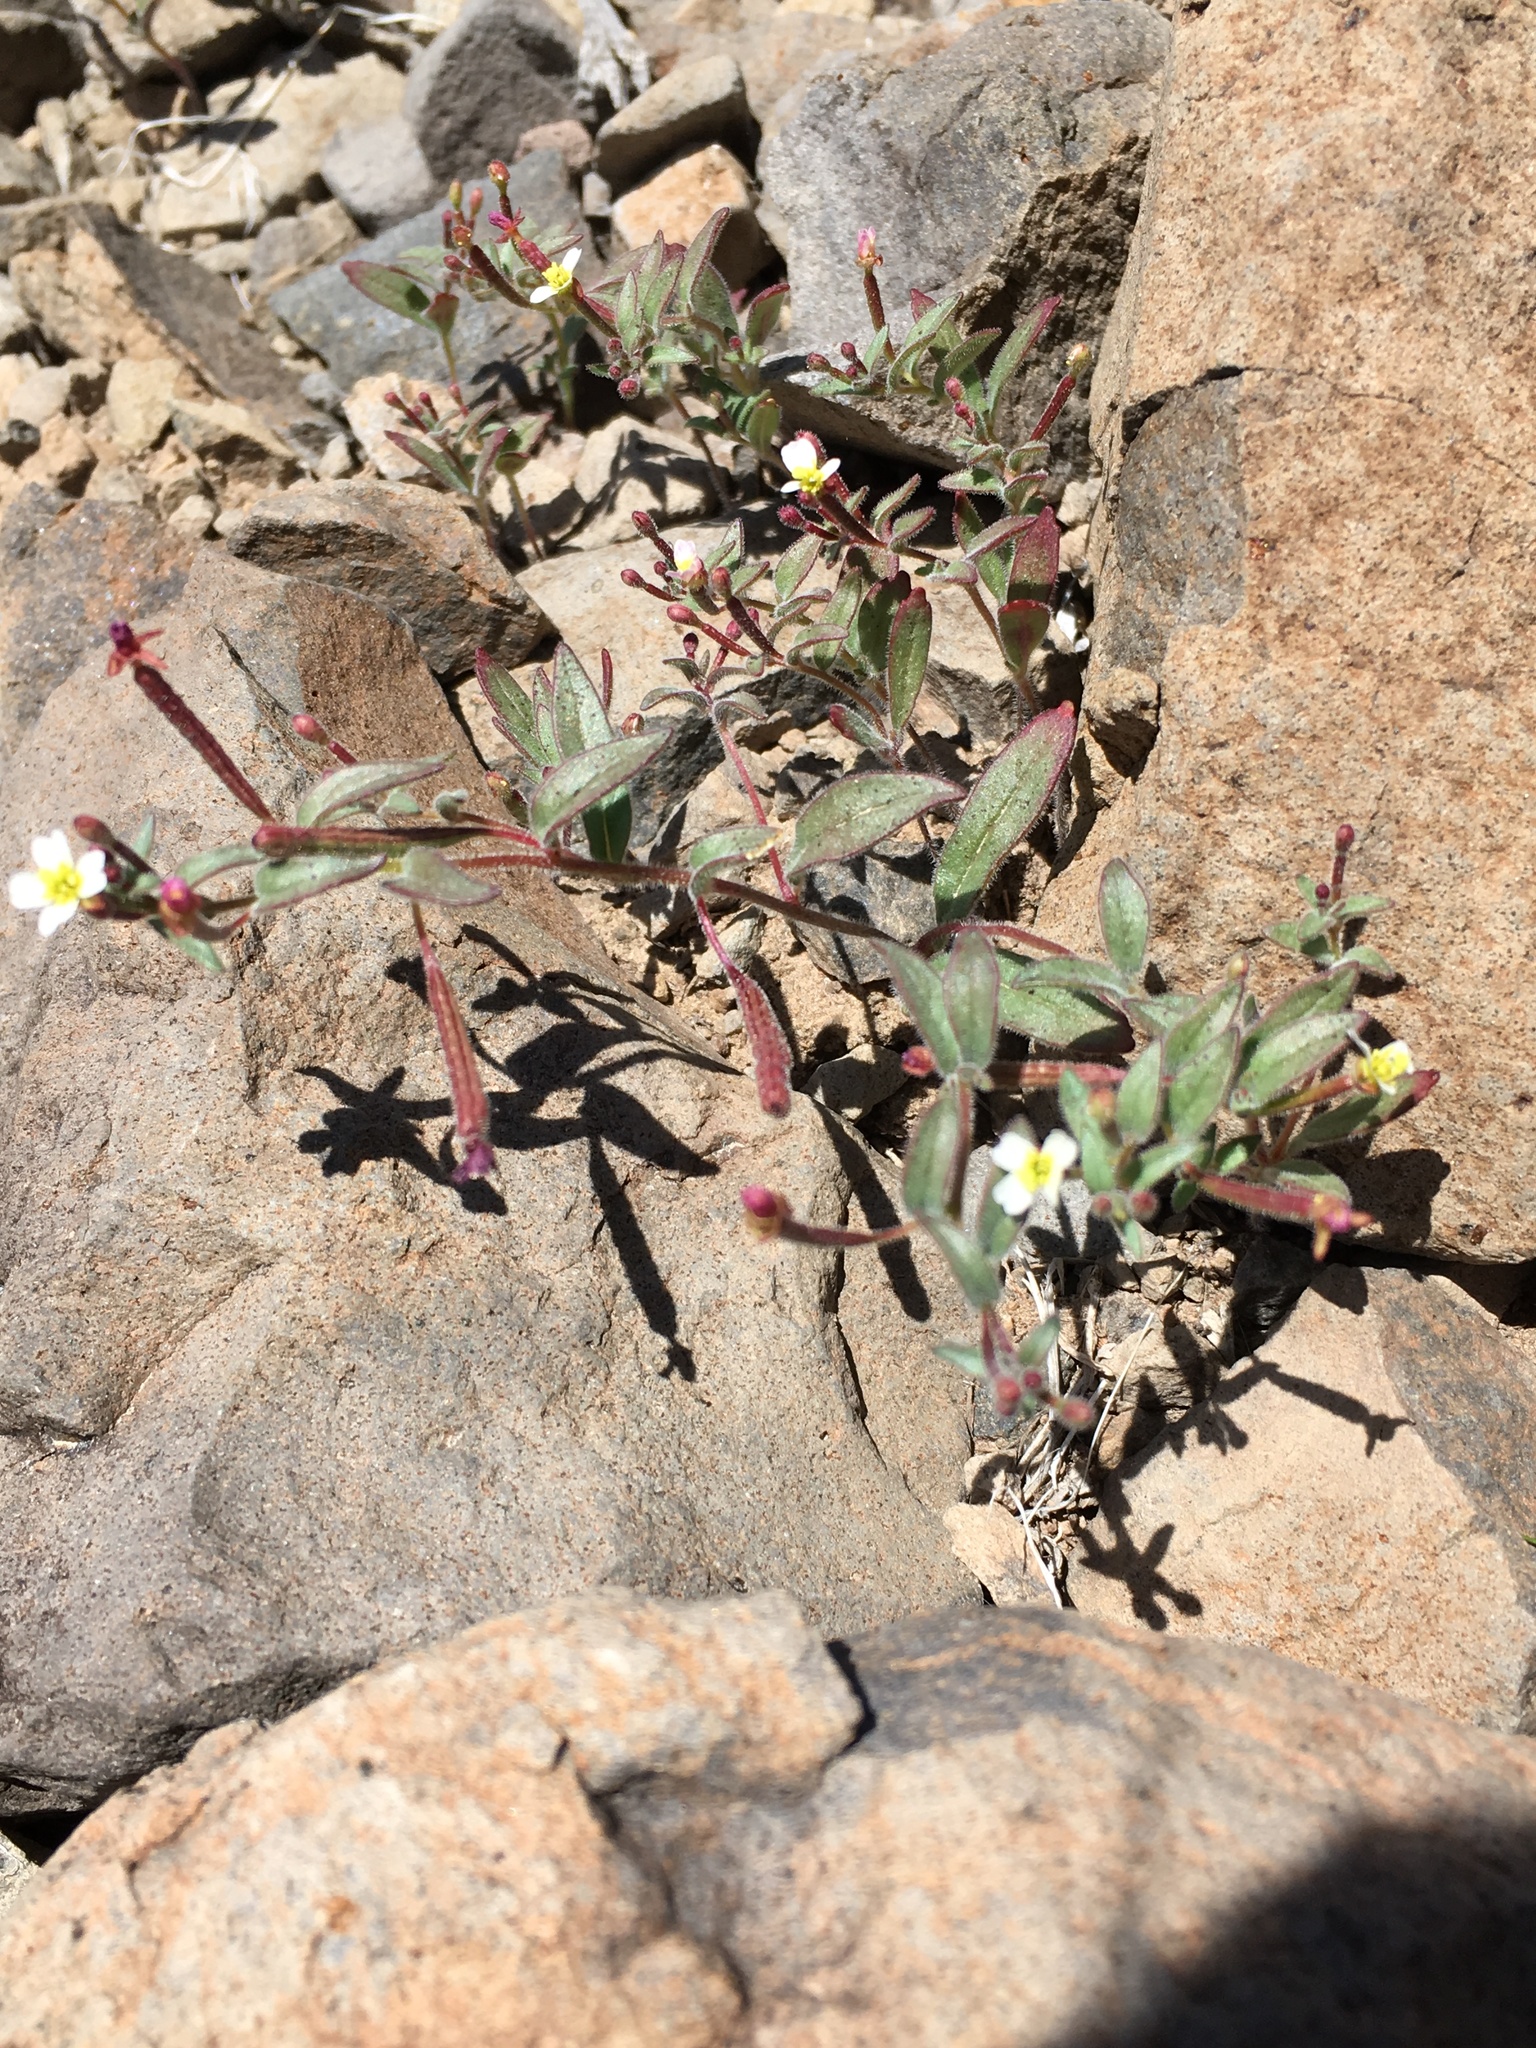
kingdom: Plantae
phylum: Tracheophyta
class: Magnoliopsida
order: Myrtales
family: Onagraceae
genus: Chylismiella
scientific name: Chylismiella pterosperma
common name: Wingfruit suncup
